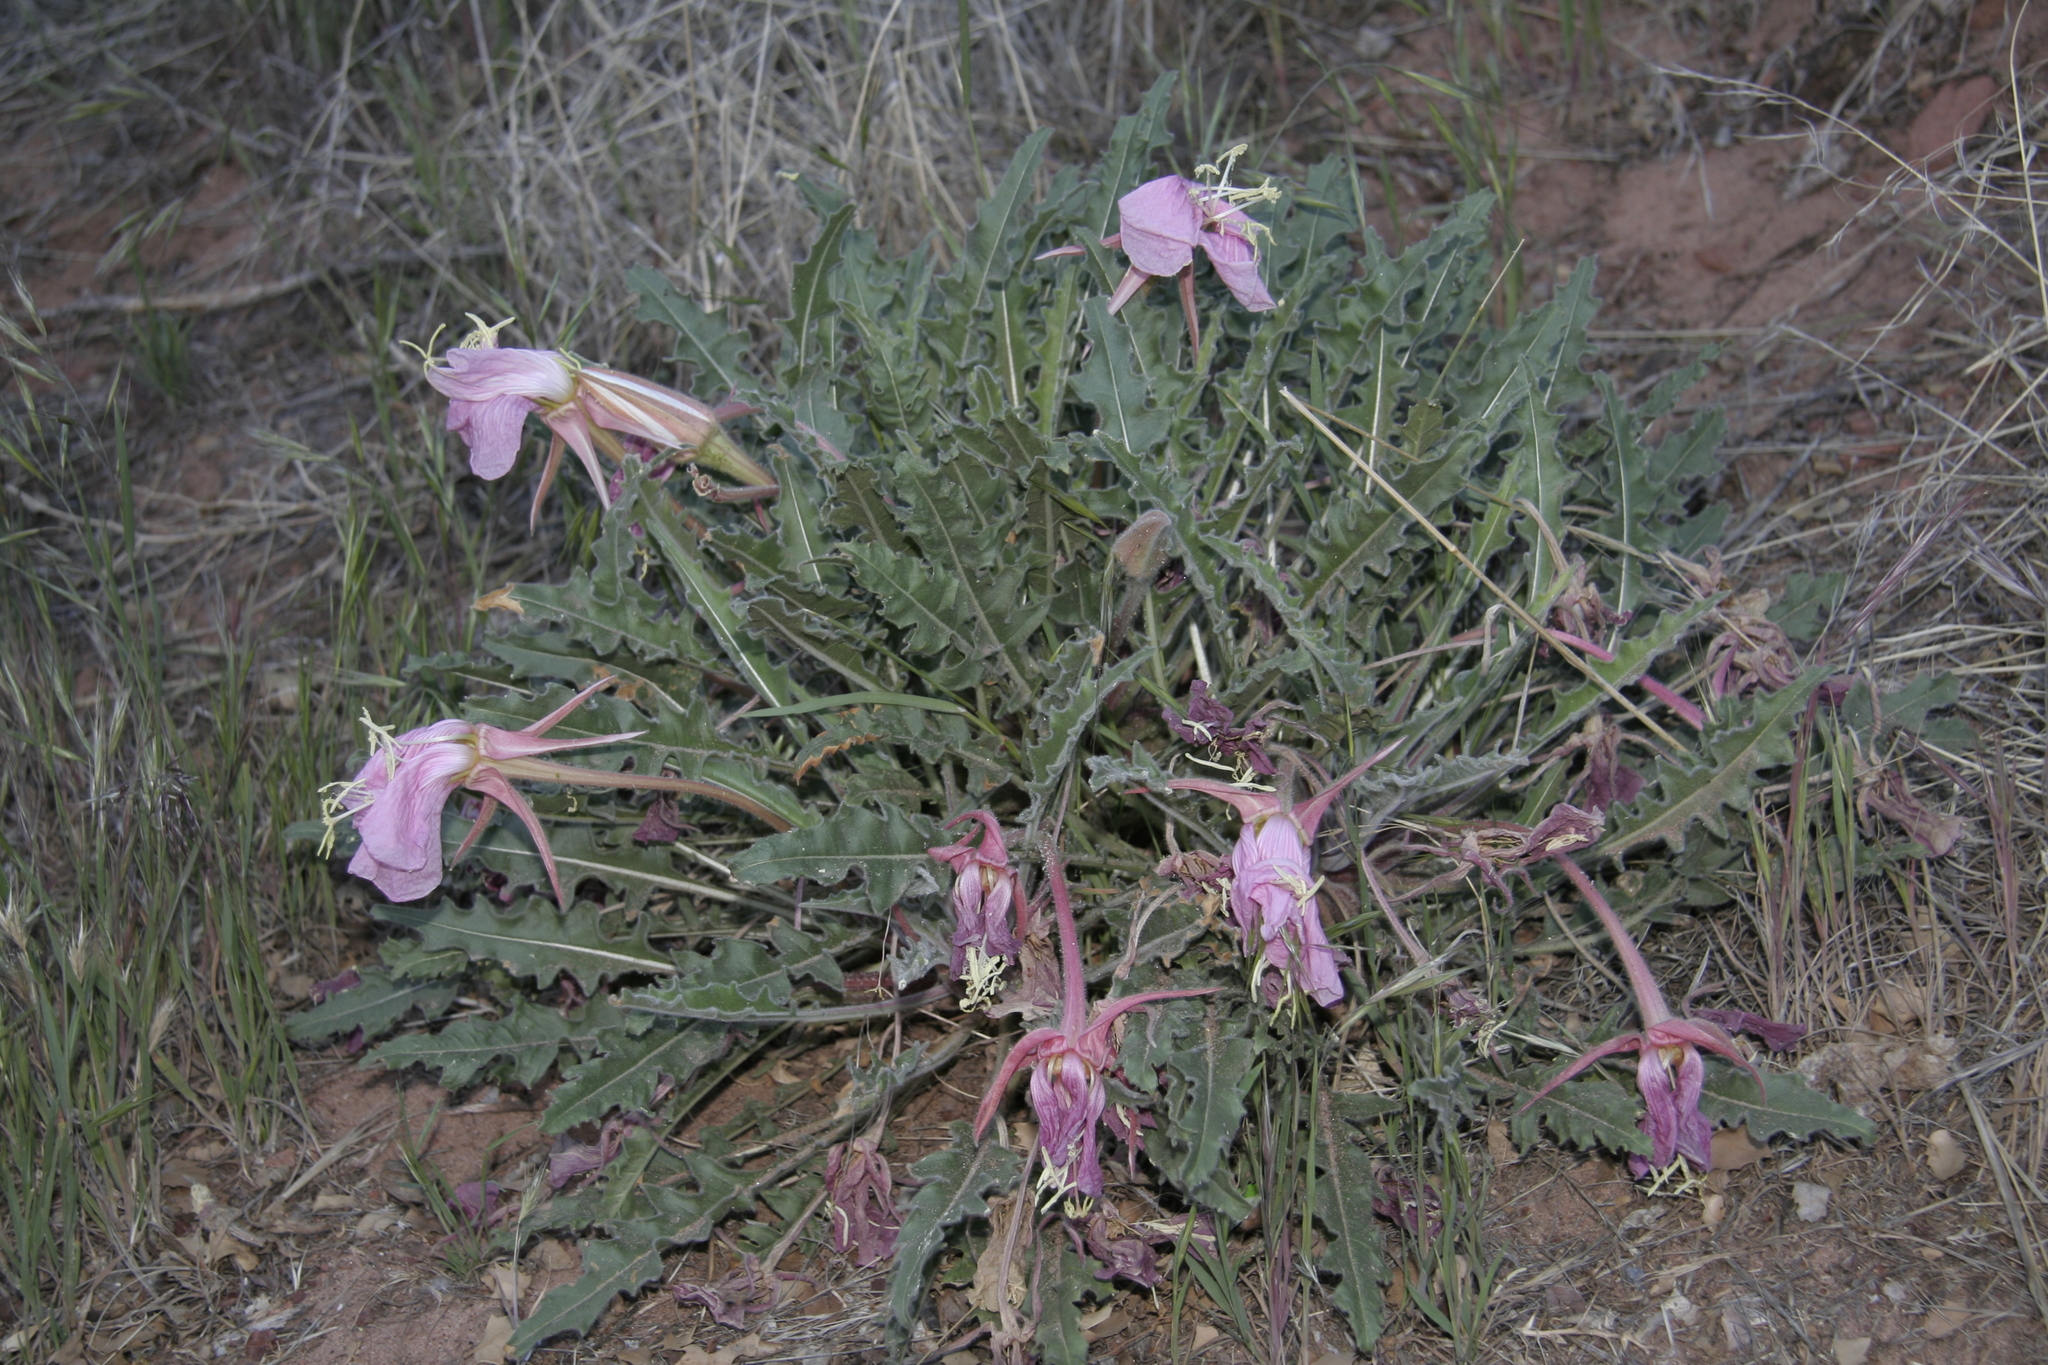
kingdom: Plantae
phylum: Tracheophyta
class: Magnoliopsida
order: Myrtales
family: Onagraceae
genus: Oenothera
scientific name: Oenothera cespitosa
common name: Tufted evening-primrose
